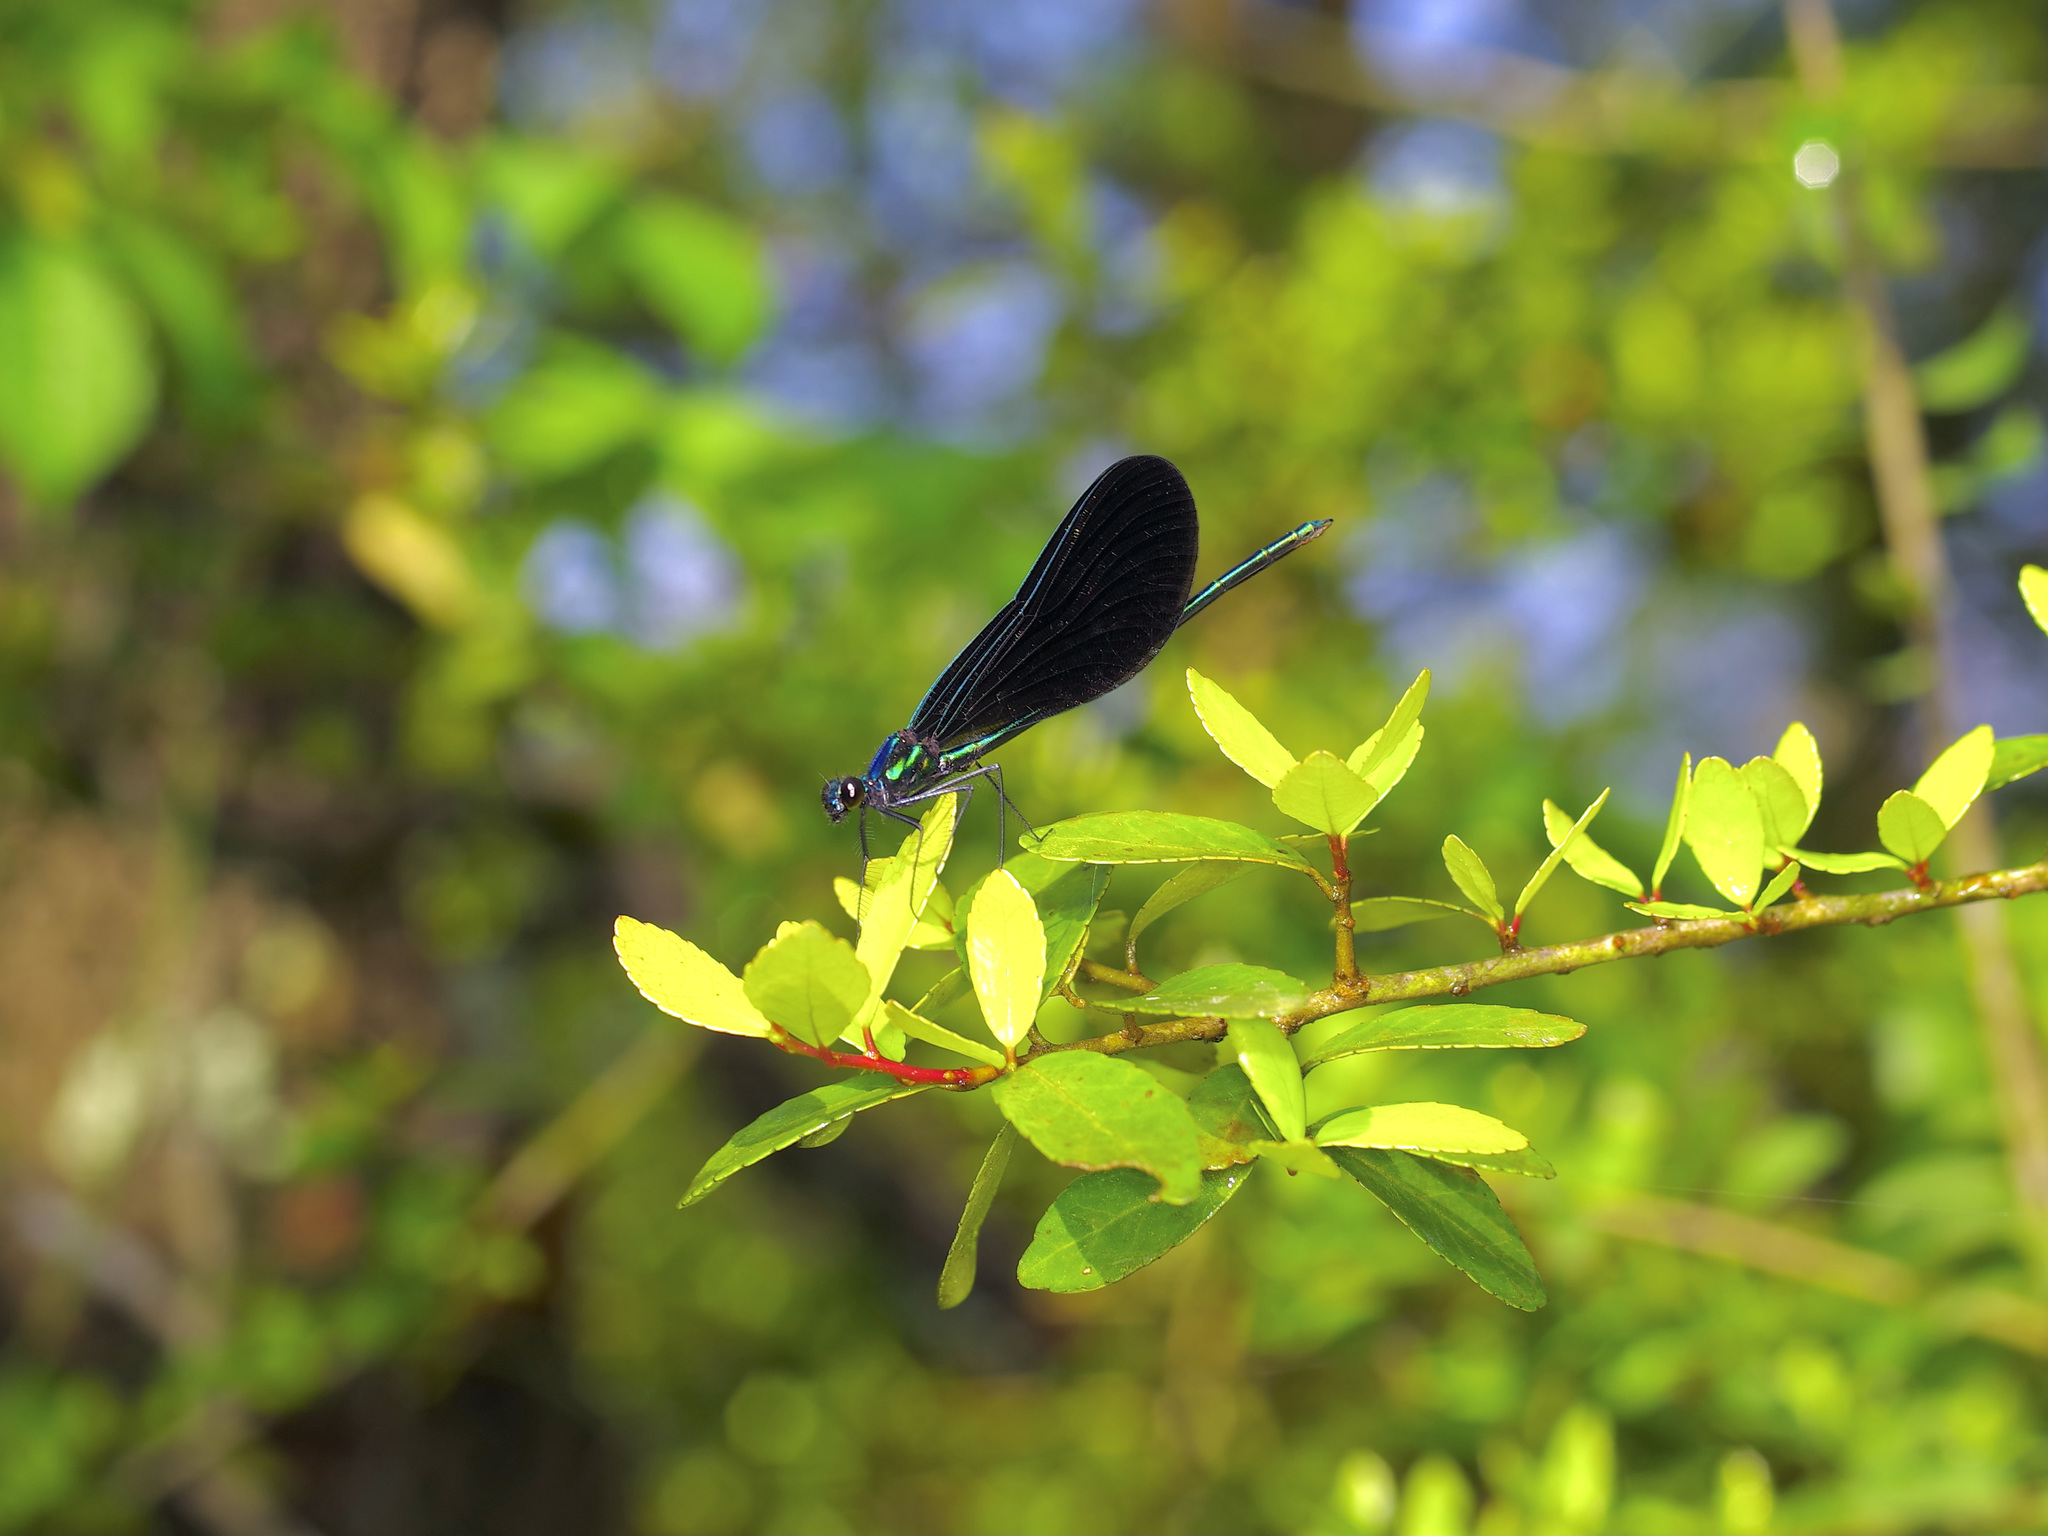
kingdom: Animalia
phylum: Arthropoda
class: Insecta
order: Odonata
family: Calopterygidae
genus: Calopteryx
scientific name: Calopteryx maculata
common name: Ebony jewelwing
